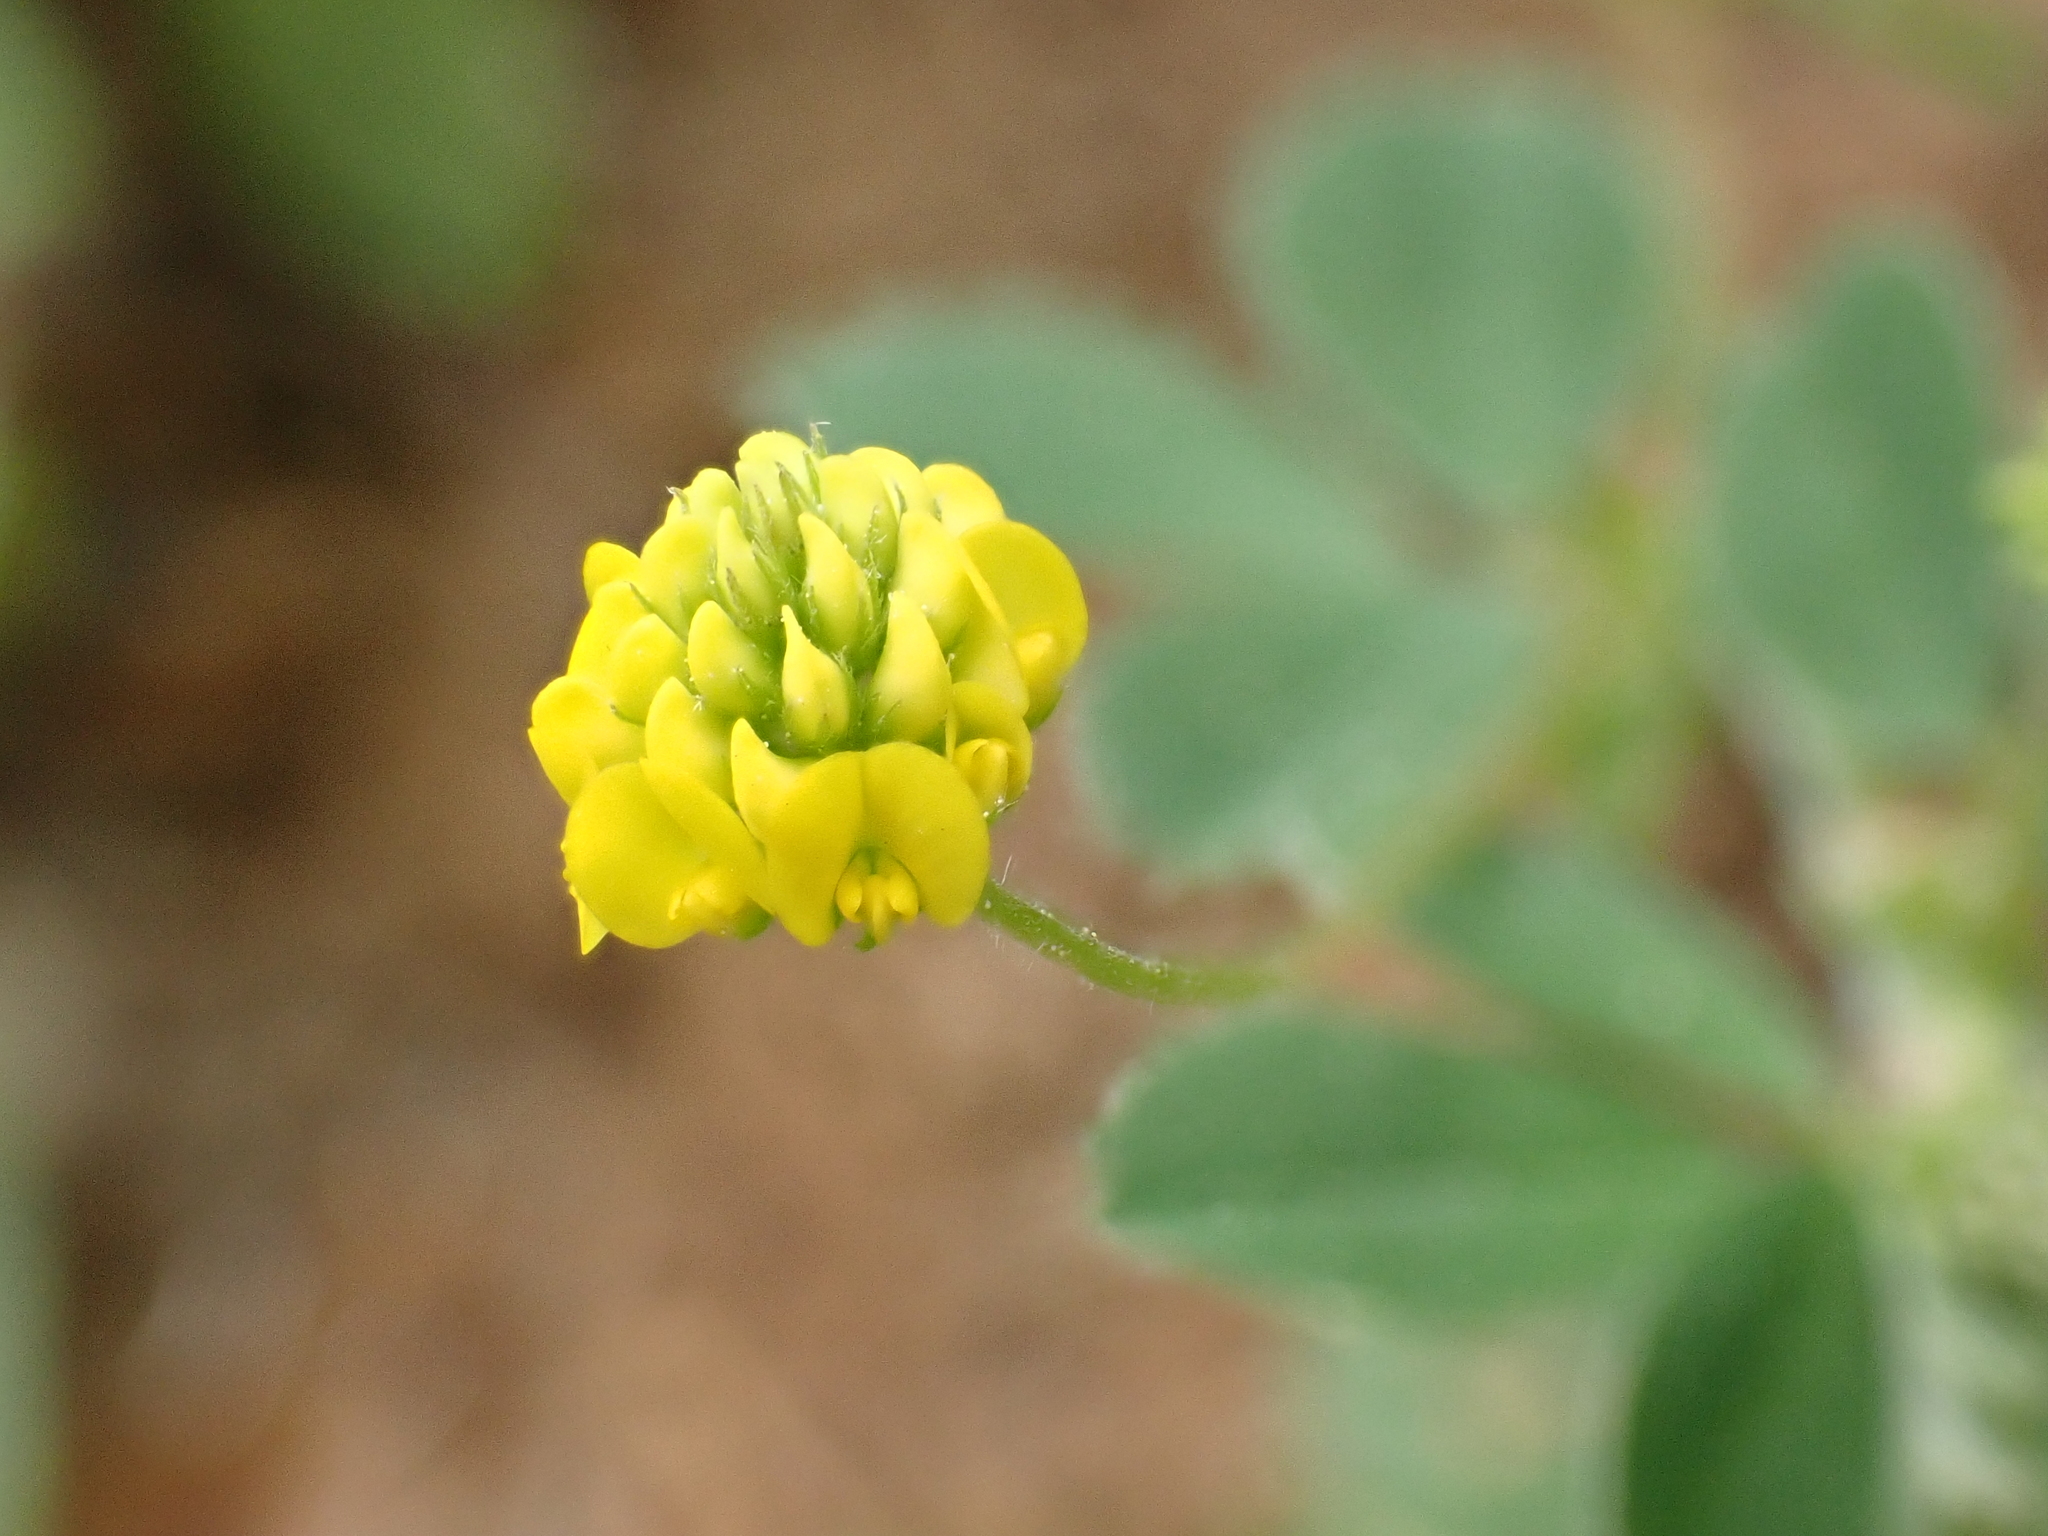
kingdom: Plantae
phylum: Tracheophyta
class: Magnoliopsida
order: Fabales
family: Fabaceae
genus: Medicago
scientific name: Medicago lupulina
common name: Black medick
